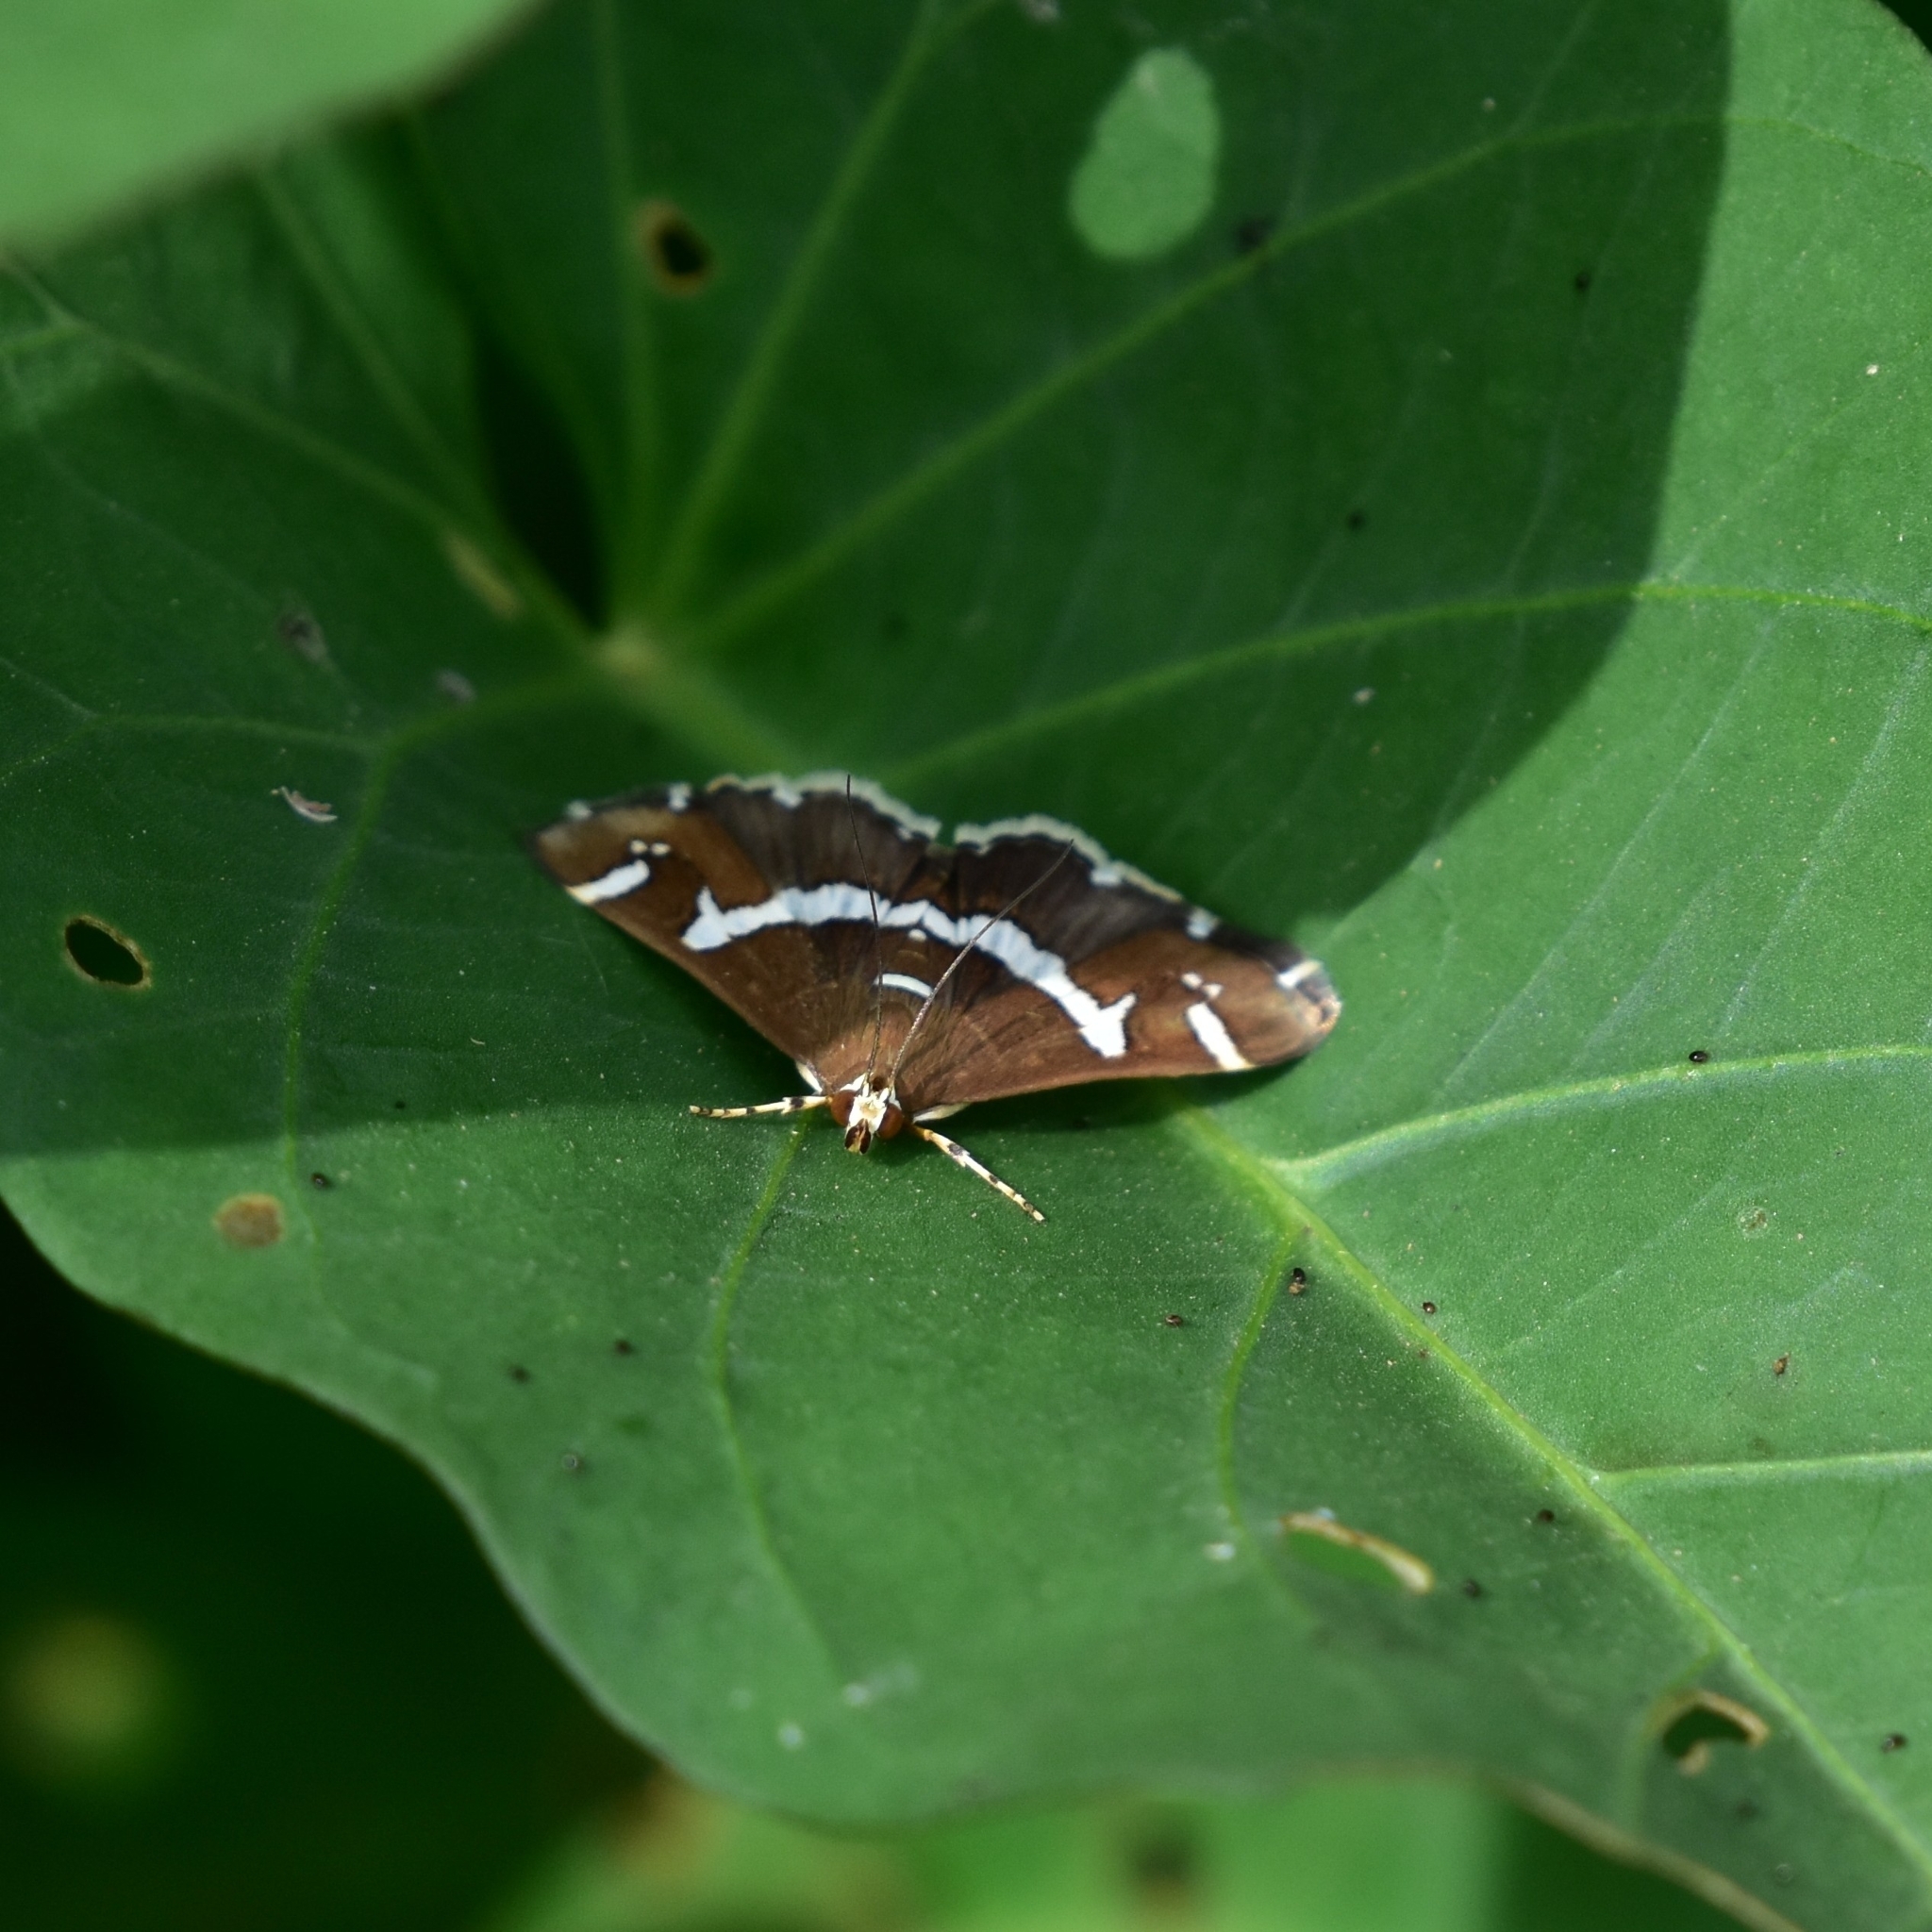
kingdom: Animalia
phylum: Arthropoda
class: Insecta
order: Lepidoptera
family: Crambidae
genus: Spoladea
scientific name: Spoladea recurvalis
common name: Beet webworm moth
